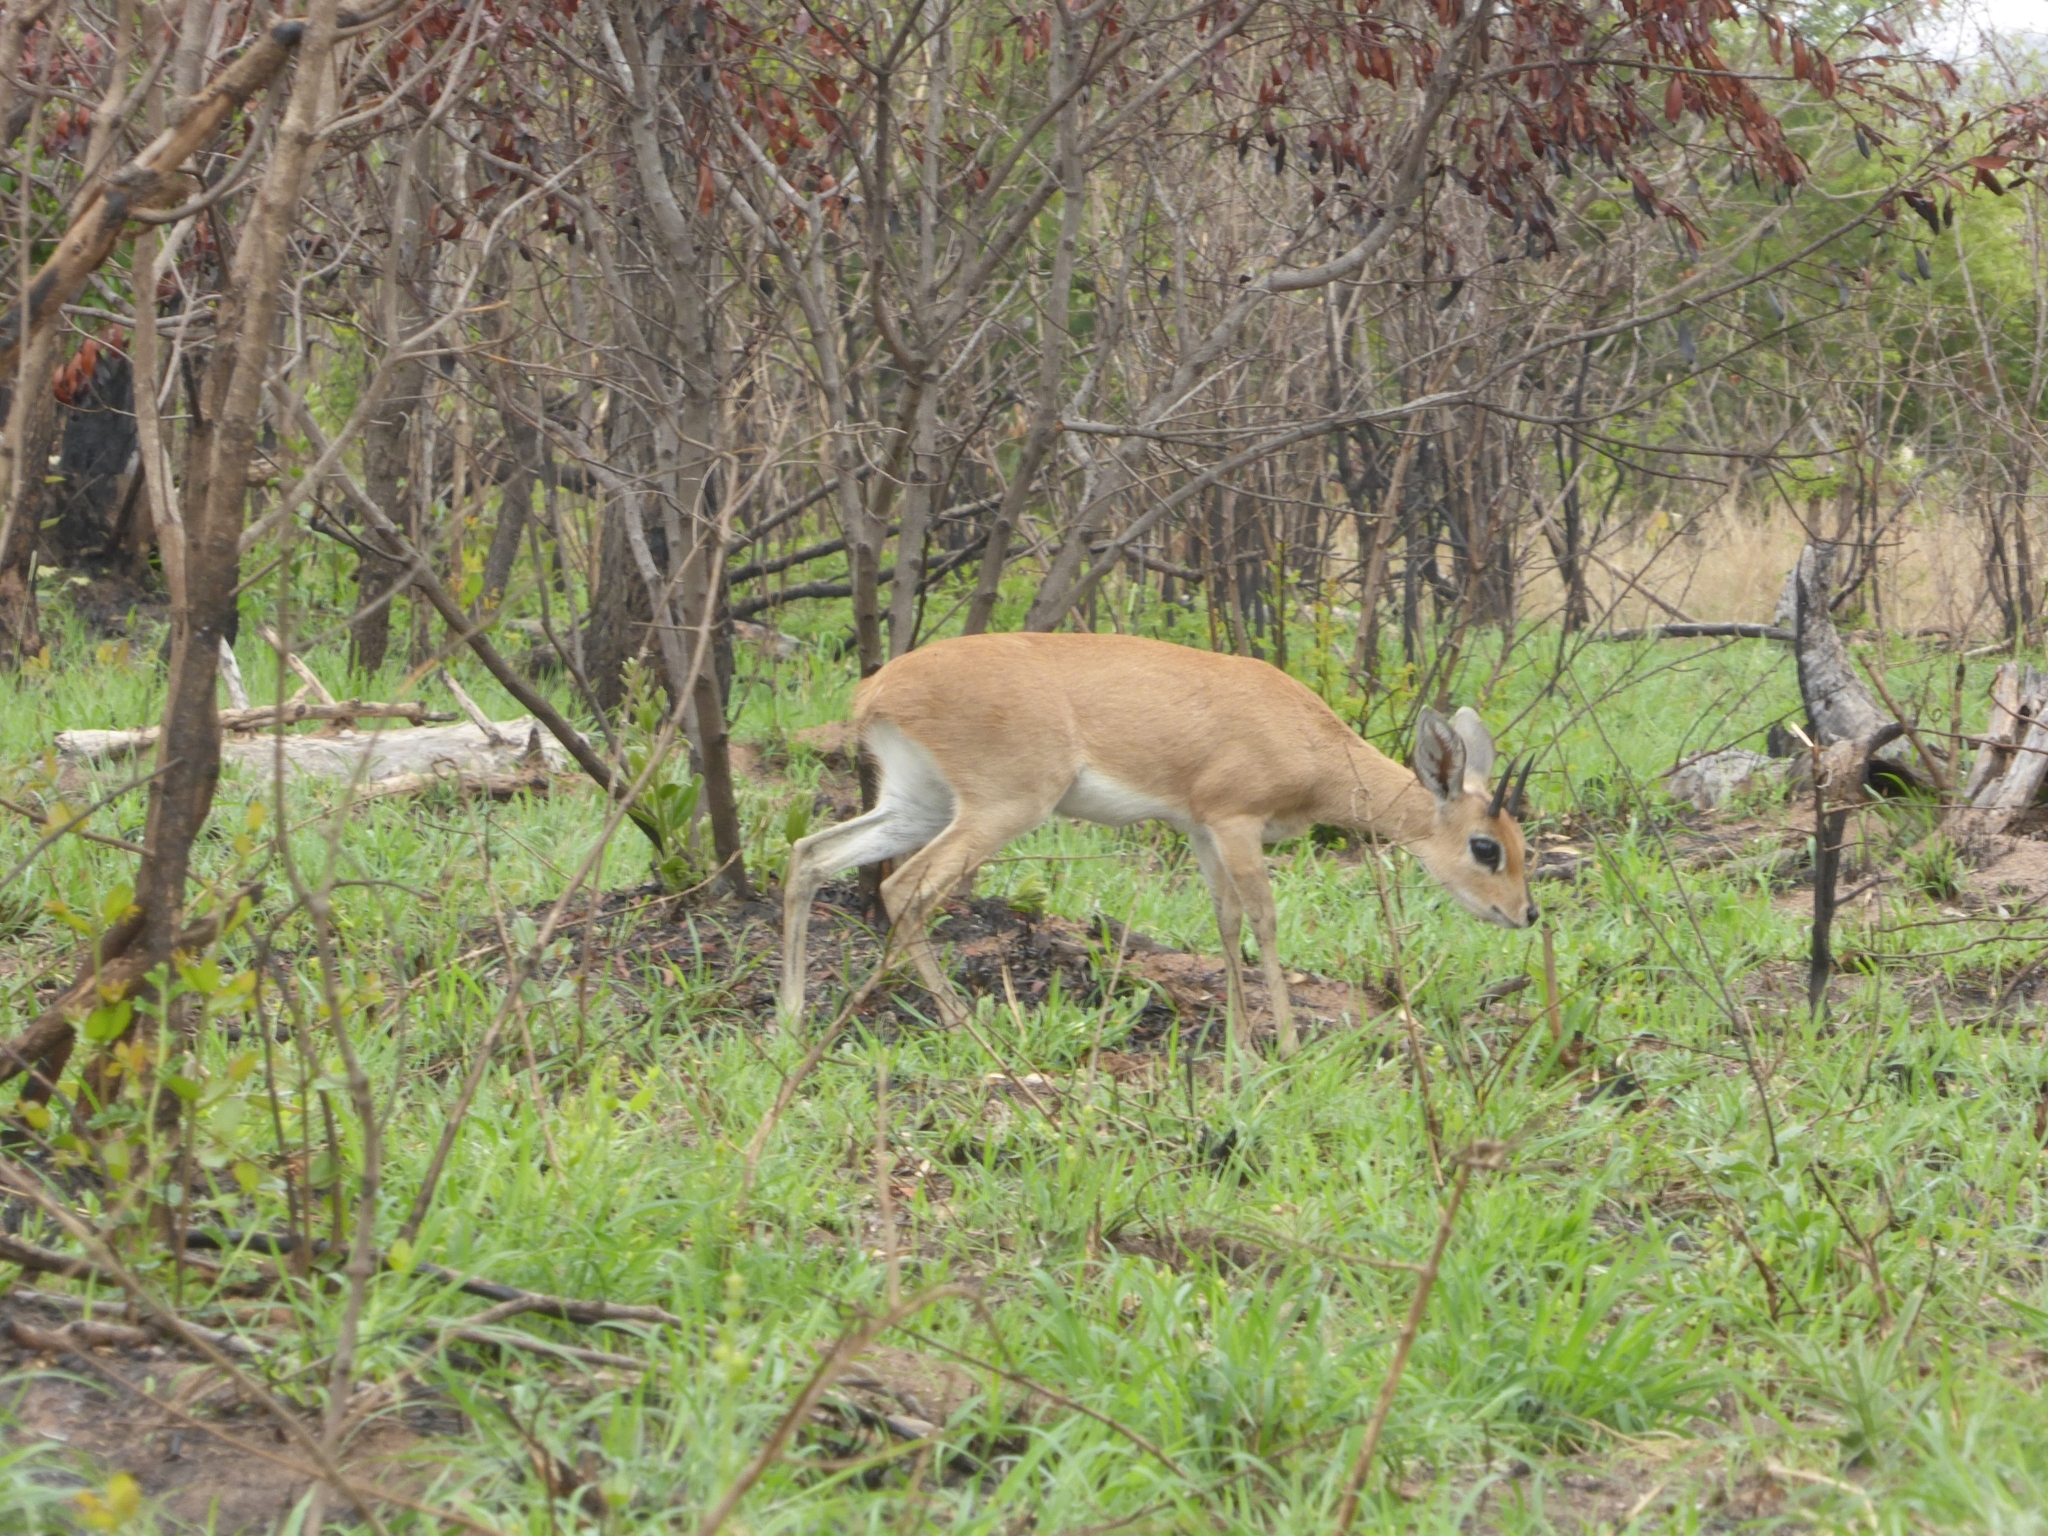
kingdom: Animalia
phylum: Chordata
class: Mammalia
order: Artiodactyla
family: Bovidae
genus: Raphicerus
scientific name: Raphicerus campestris
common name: Steenbok
